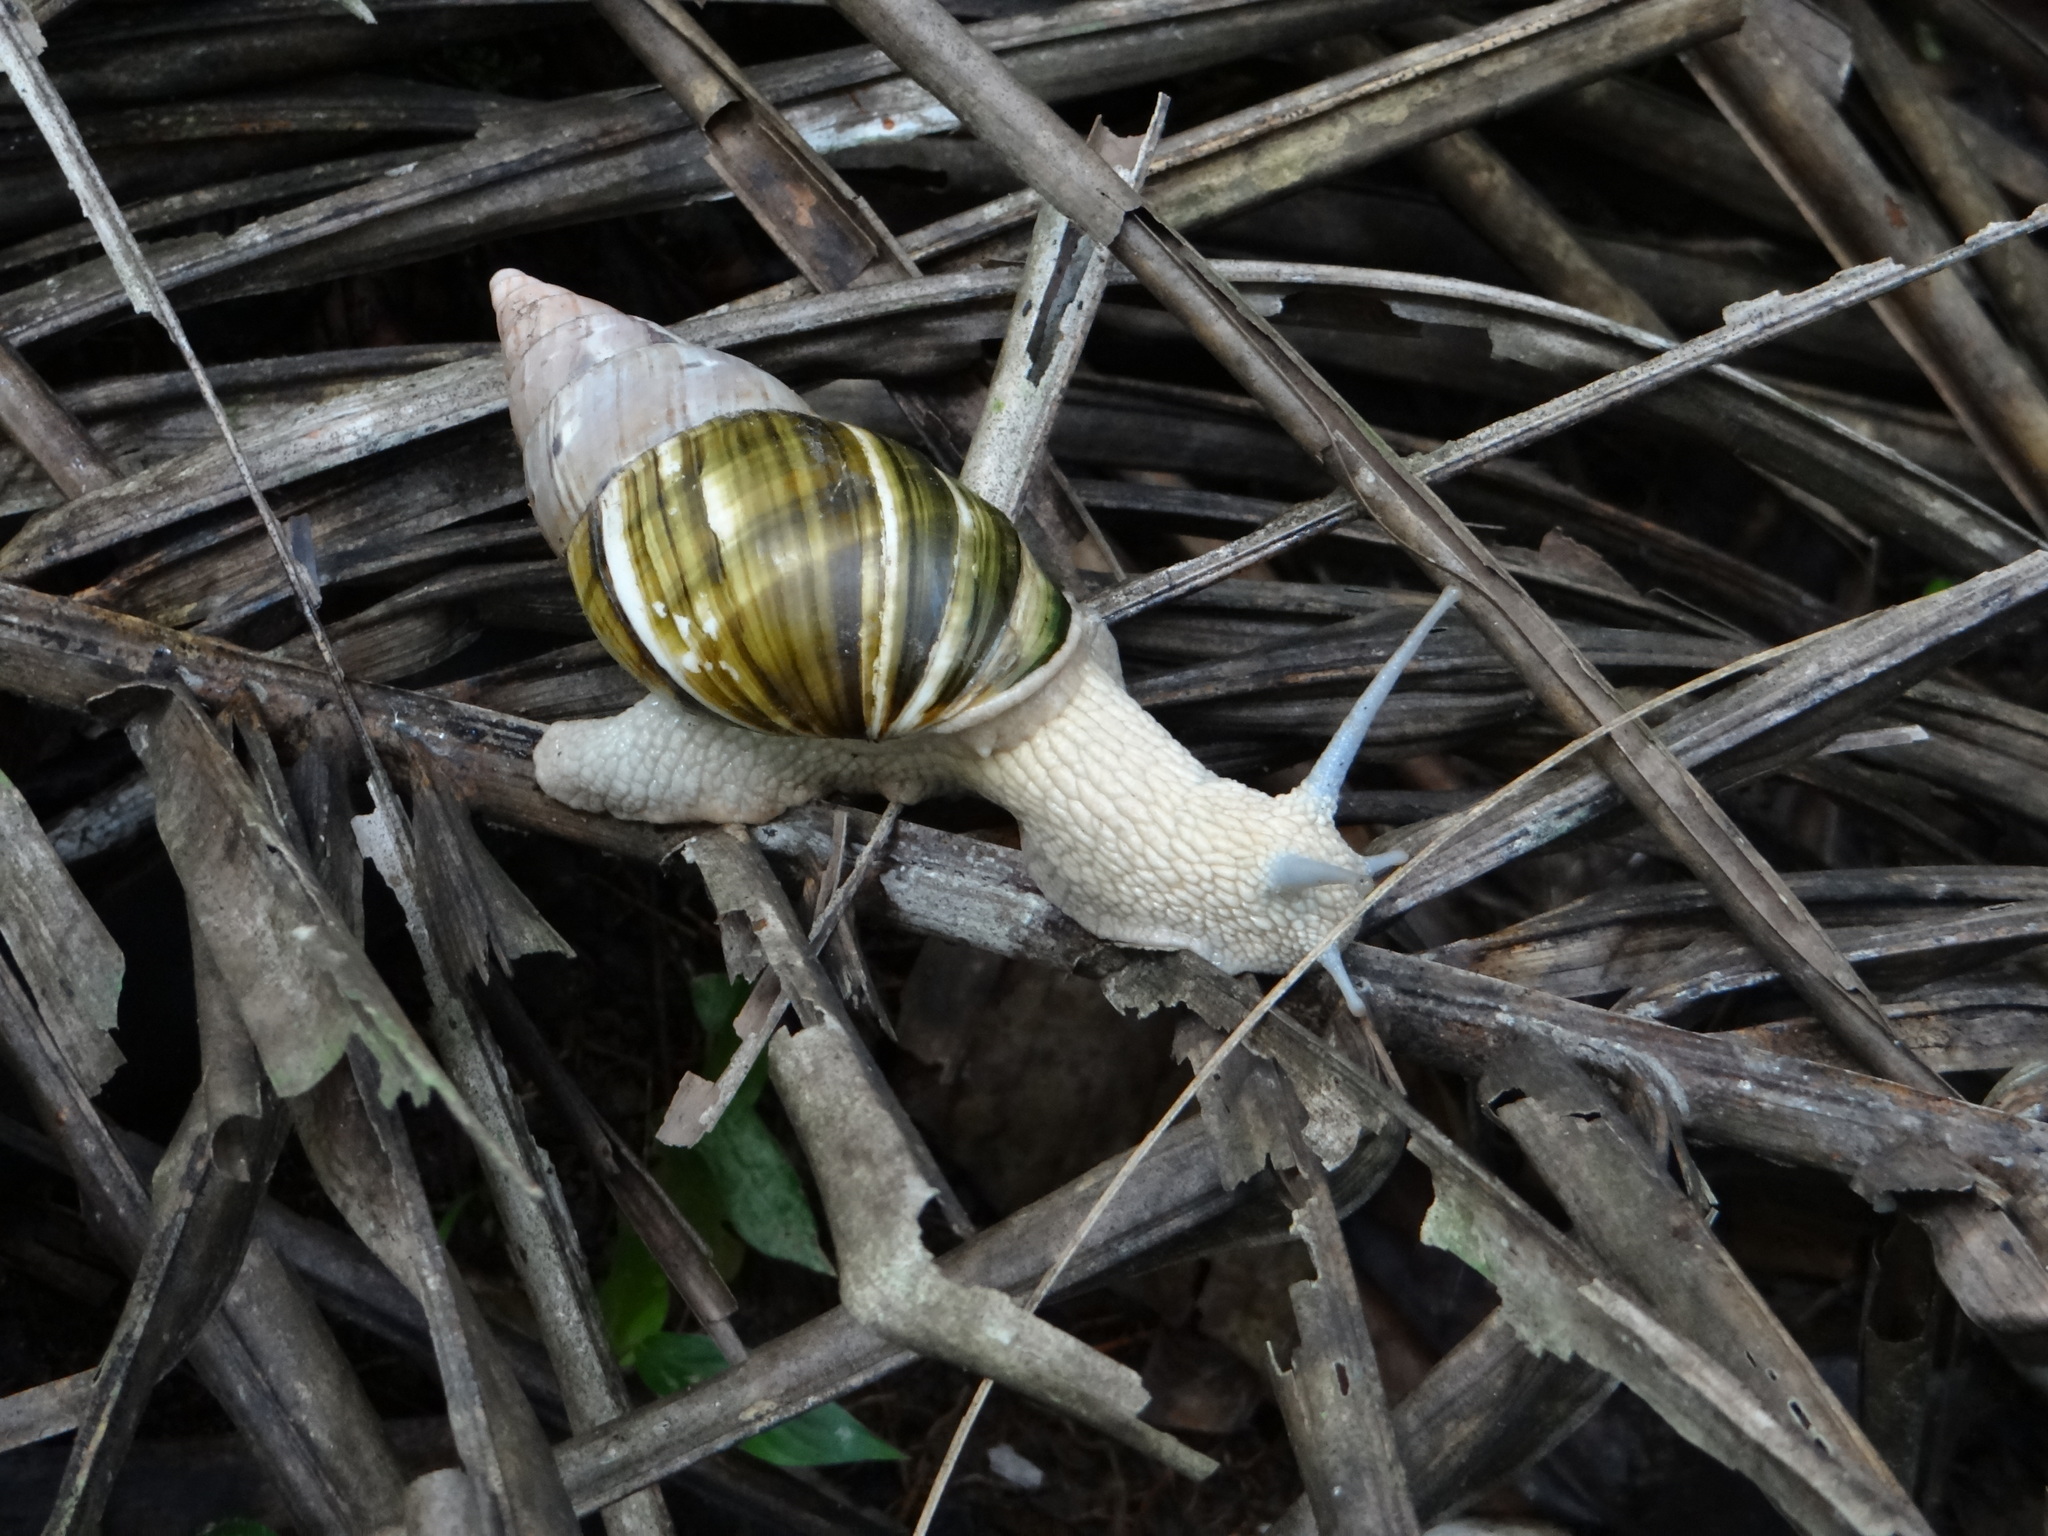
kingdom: Animalia
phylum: Mollusca
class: Gastropoda
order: Stylommatophora
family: Orthalicidae
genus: Corona
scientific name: Corona incisa
